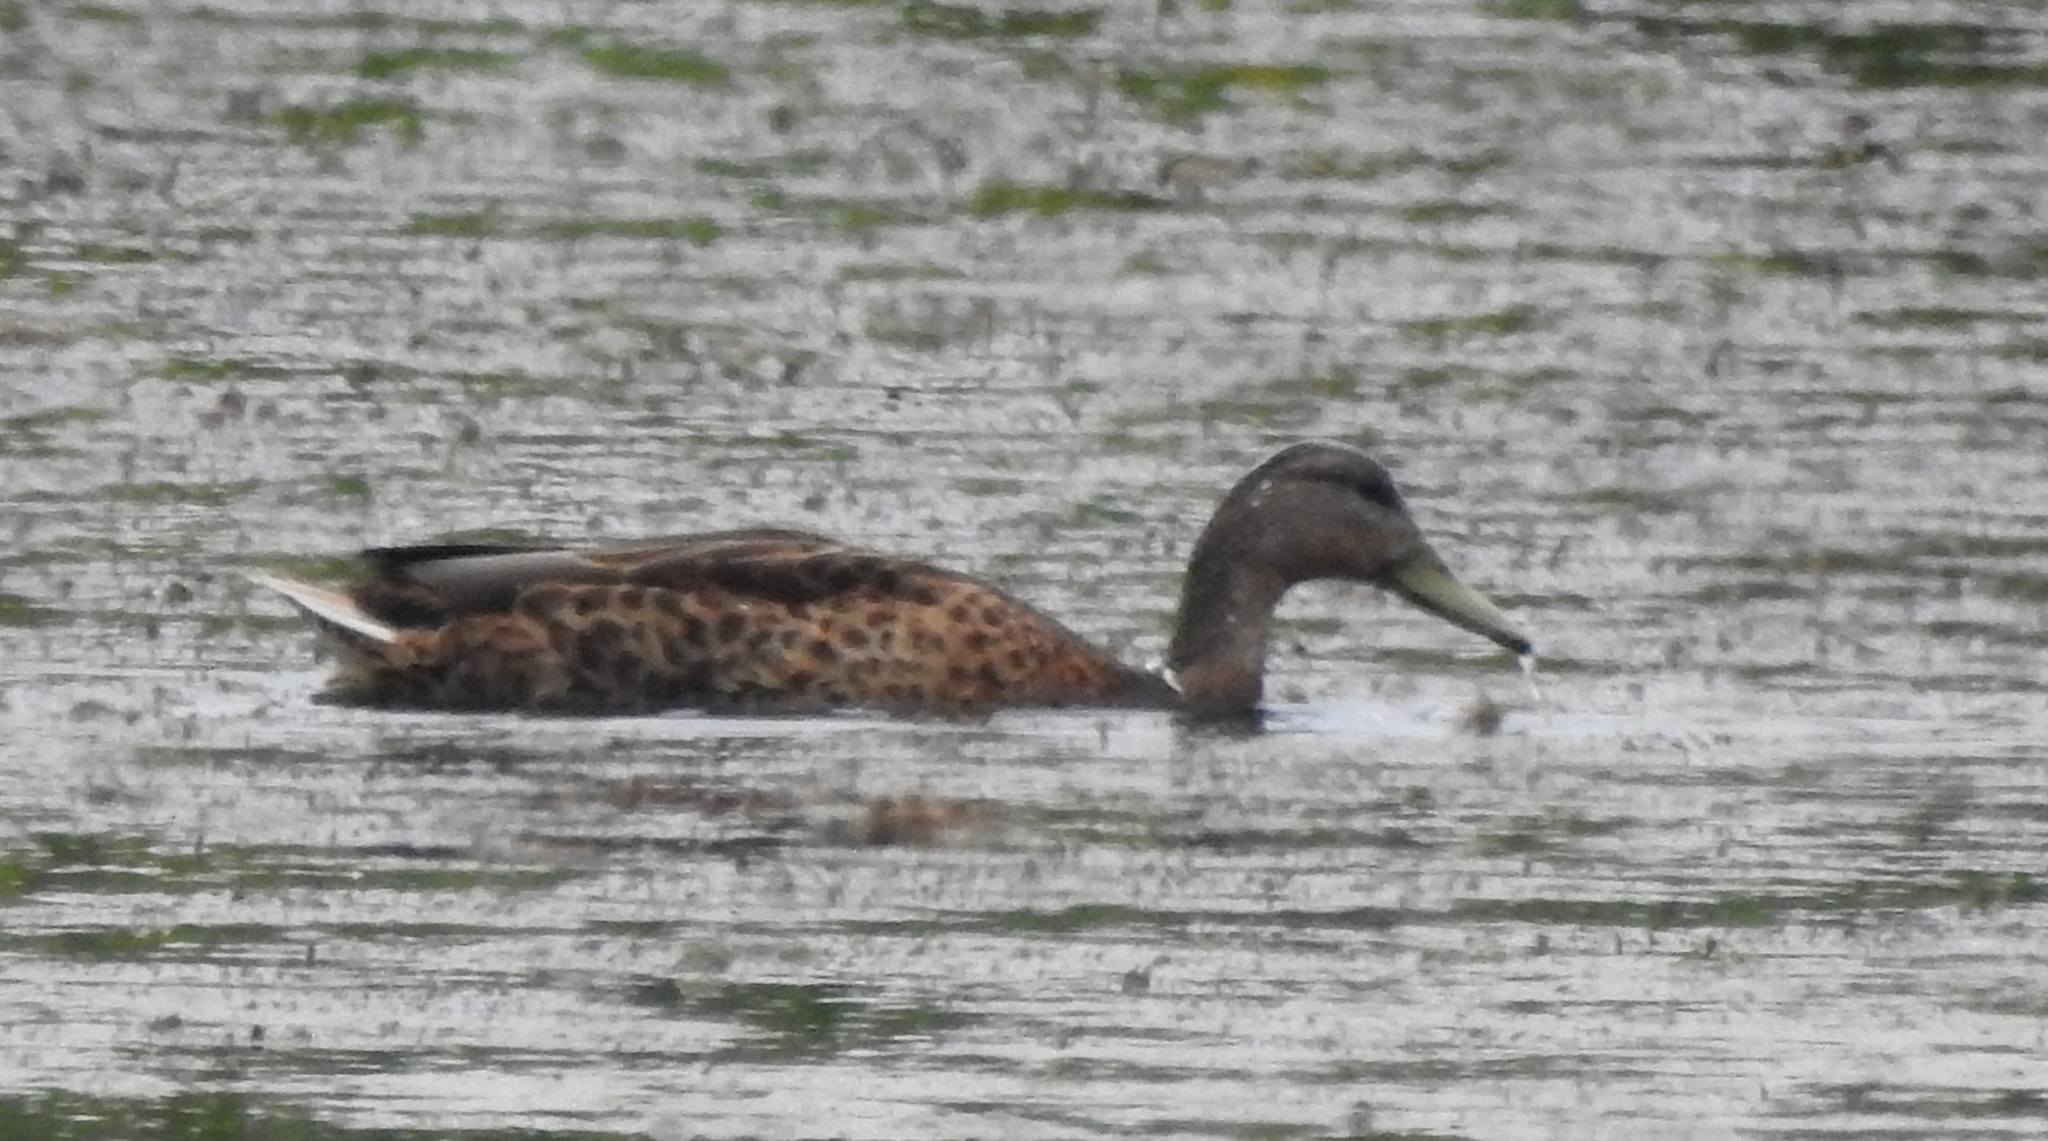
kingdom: Animalia
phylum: Chordata
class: Aves
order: Anseriformes
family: Anatidae
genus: Anas
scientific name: Anas platyrhynchos
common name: Mallard
